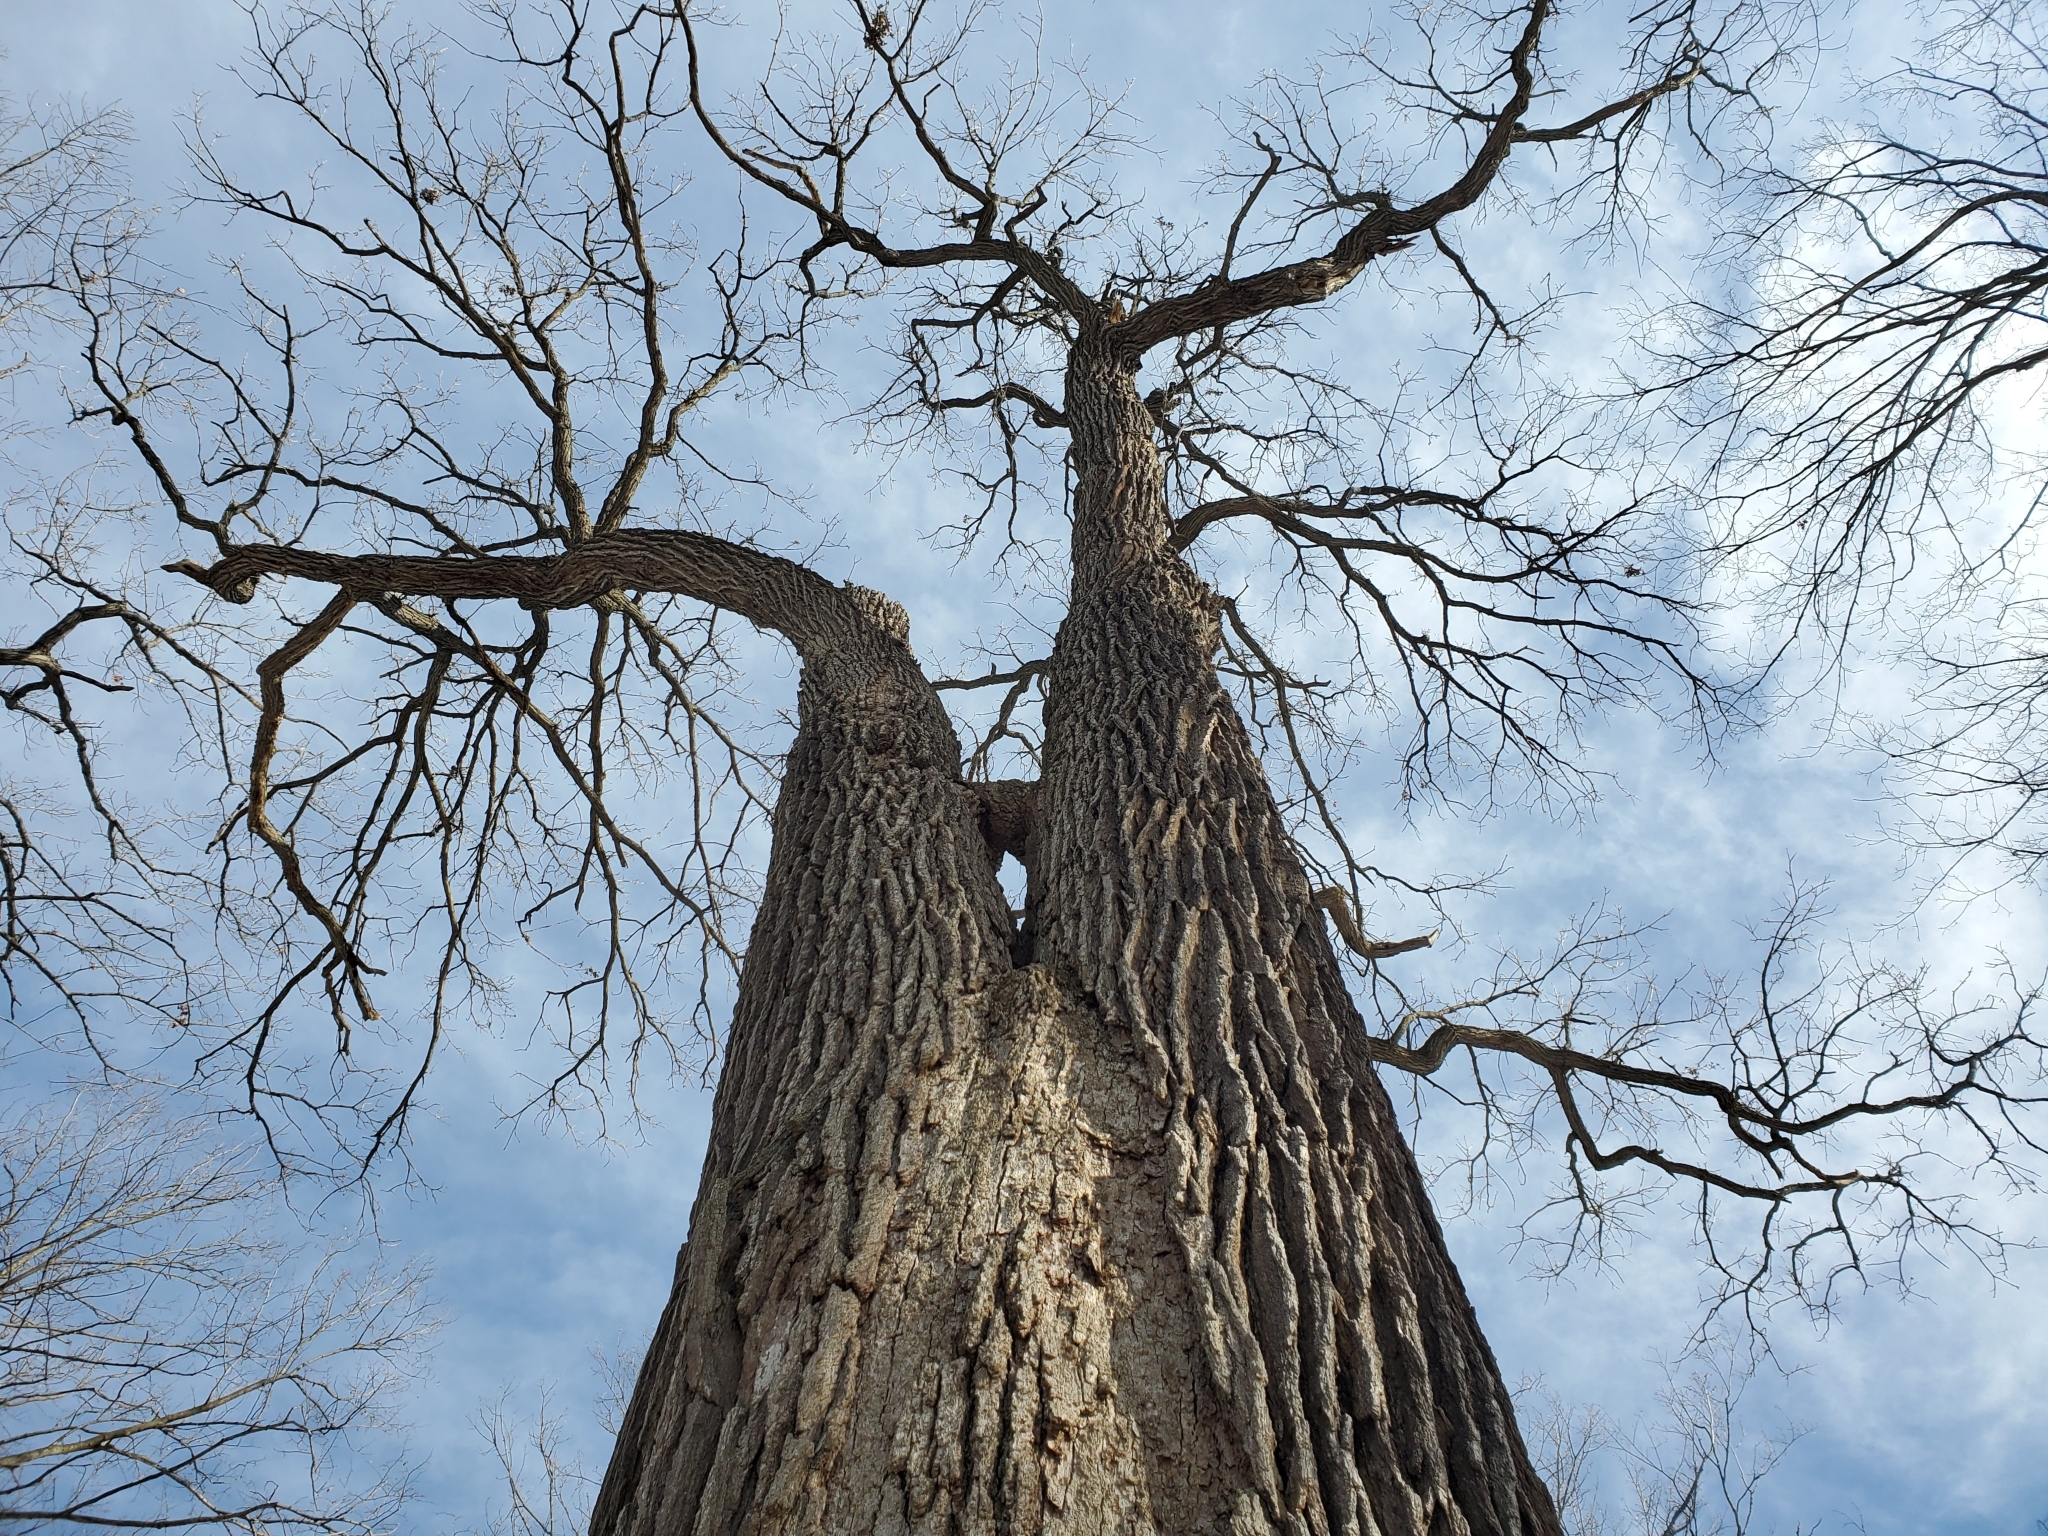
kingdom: Plantae
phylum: Tracheophyta
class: Magnoliopsida
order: Fagales
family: Fagaceae
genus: Quercus
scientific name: Quercus macrocarpa
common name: Bur oak
